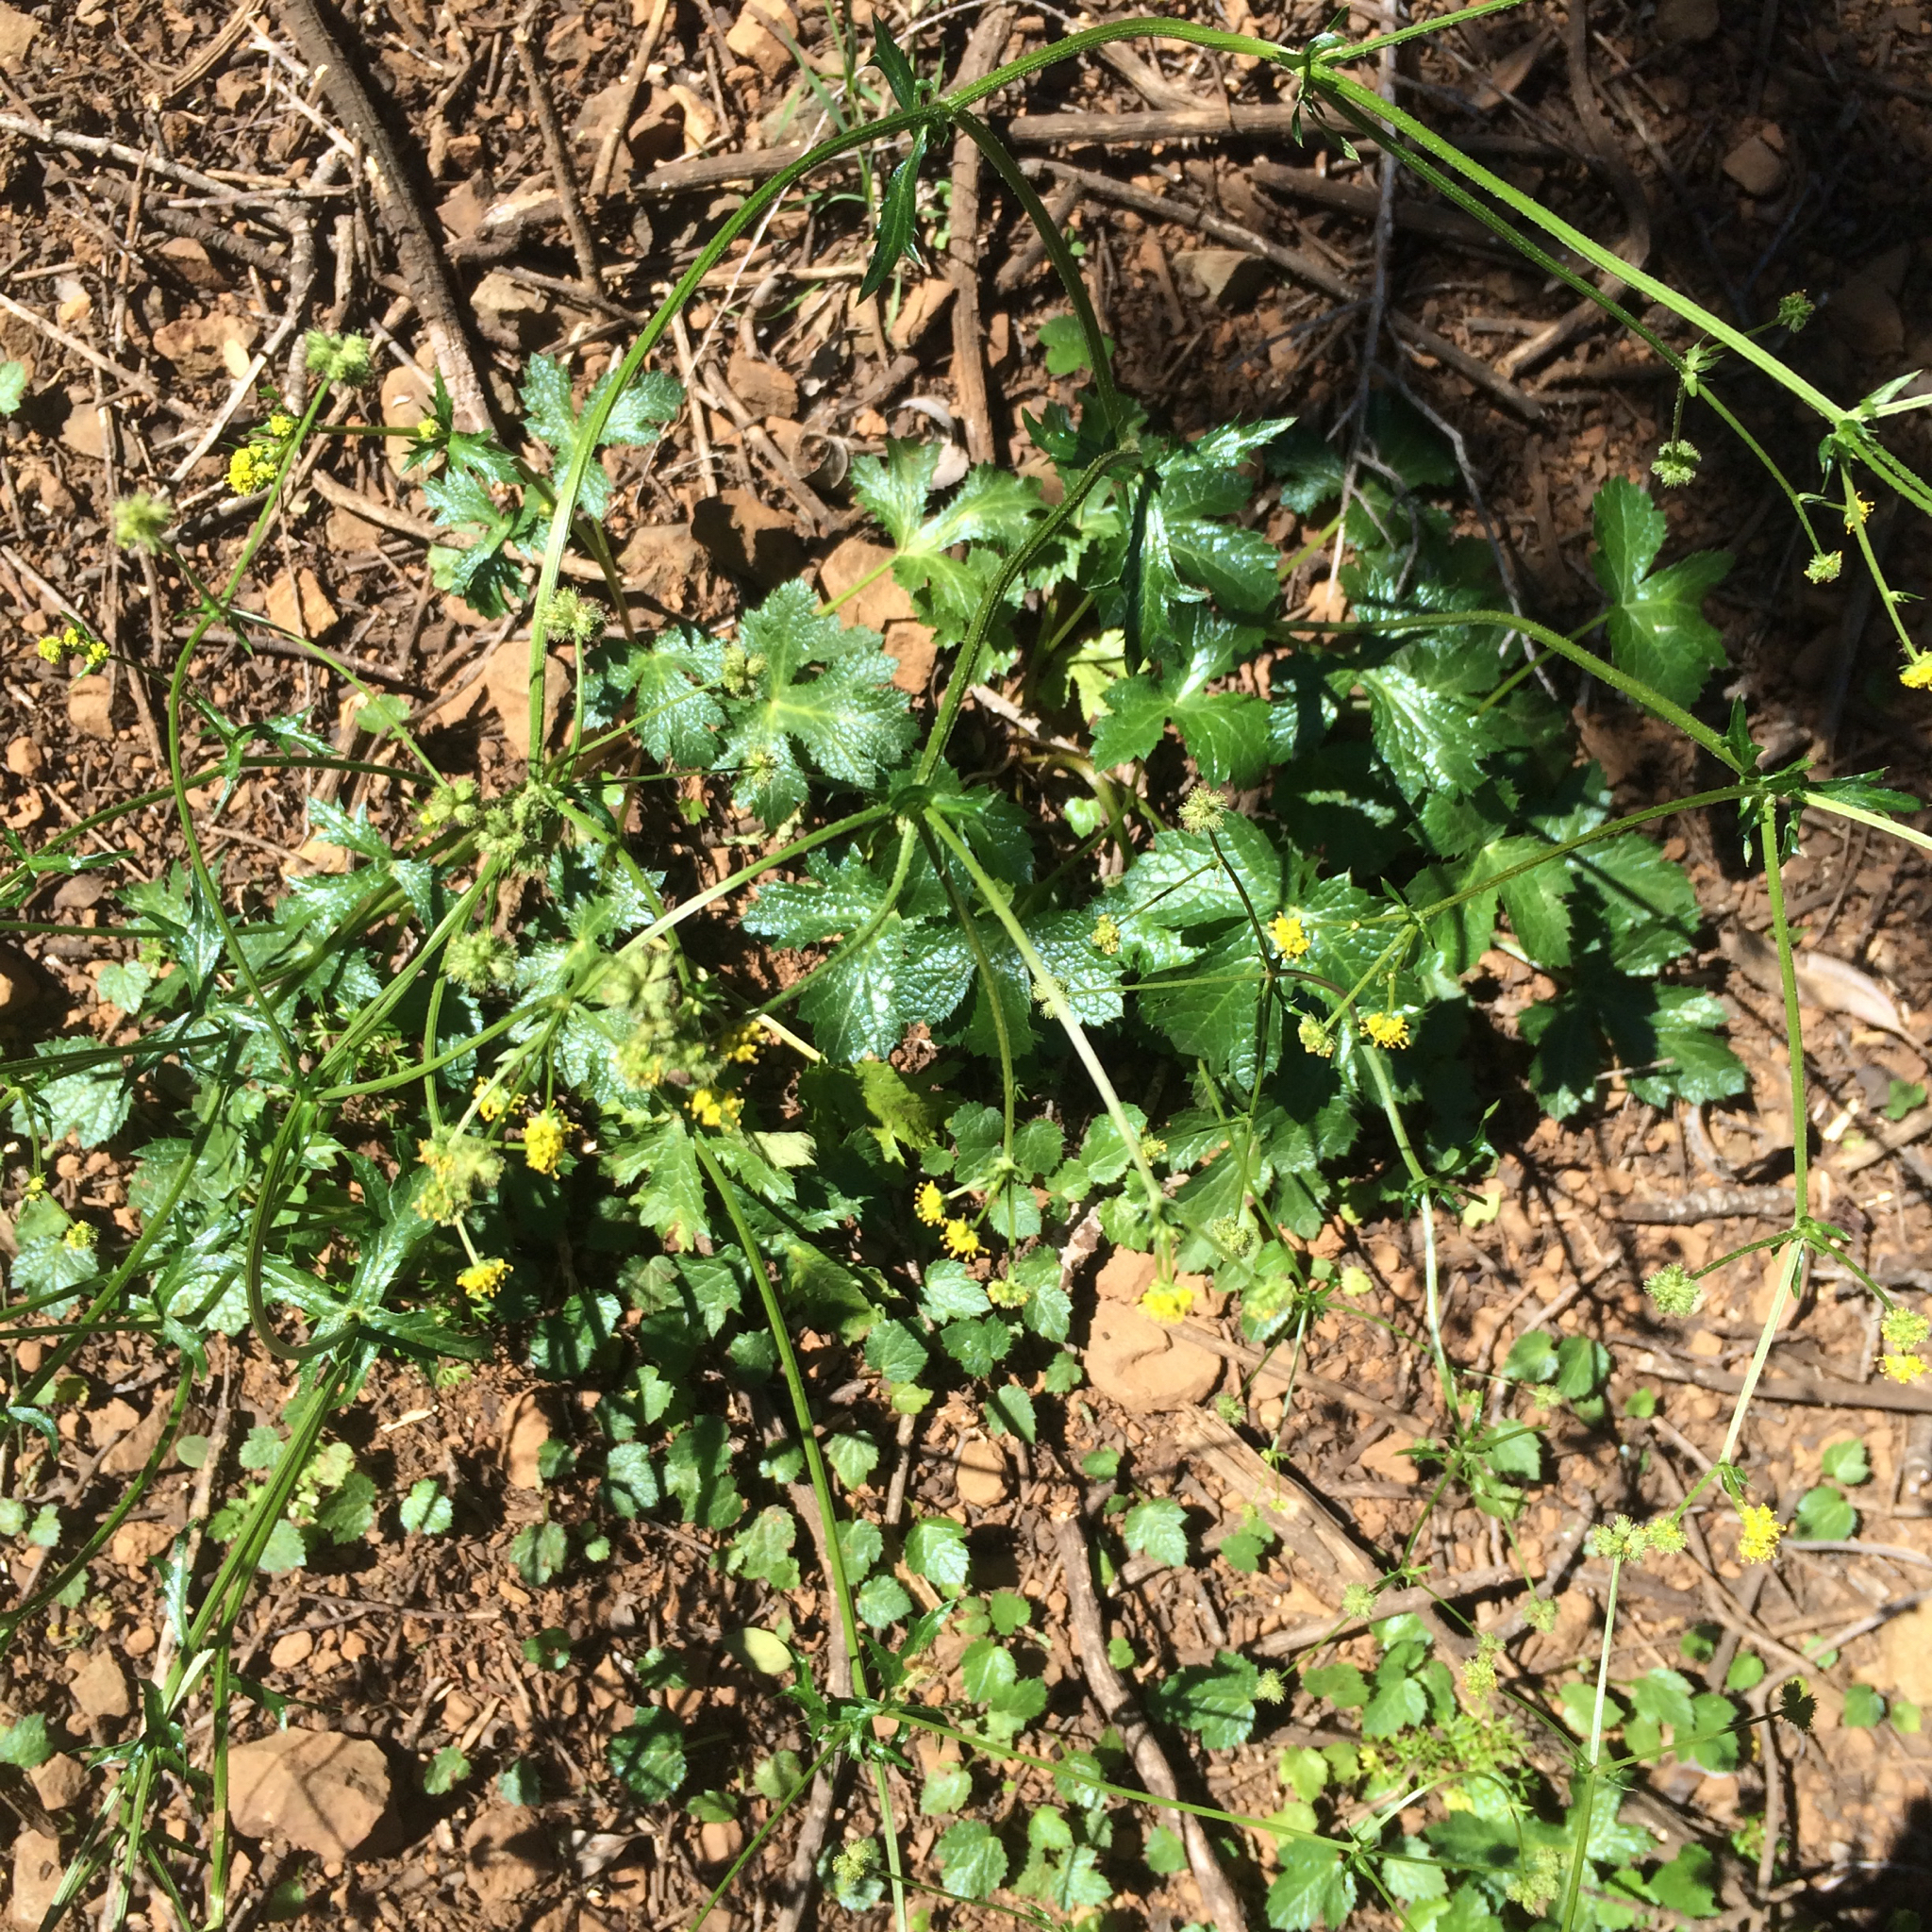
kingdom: Plantae
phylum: Tracheophyta
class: Magnoliopsida
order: Apiales
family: Apiaceae
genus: Sanicula
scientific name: Sanicula crassicaulis
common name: Western snakeroot
